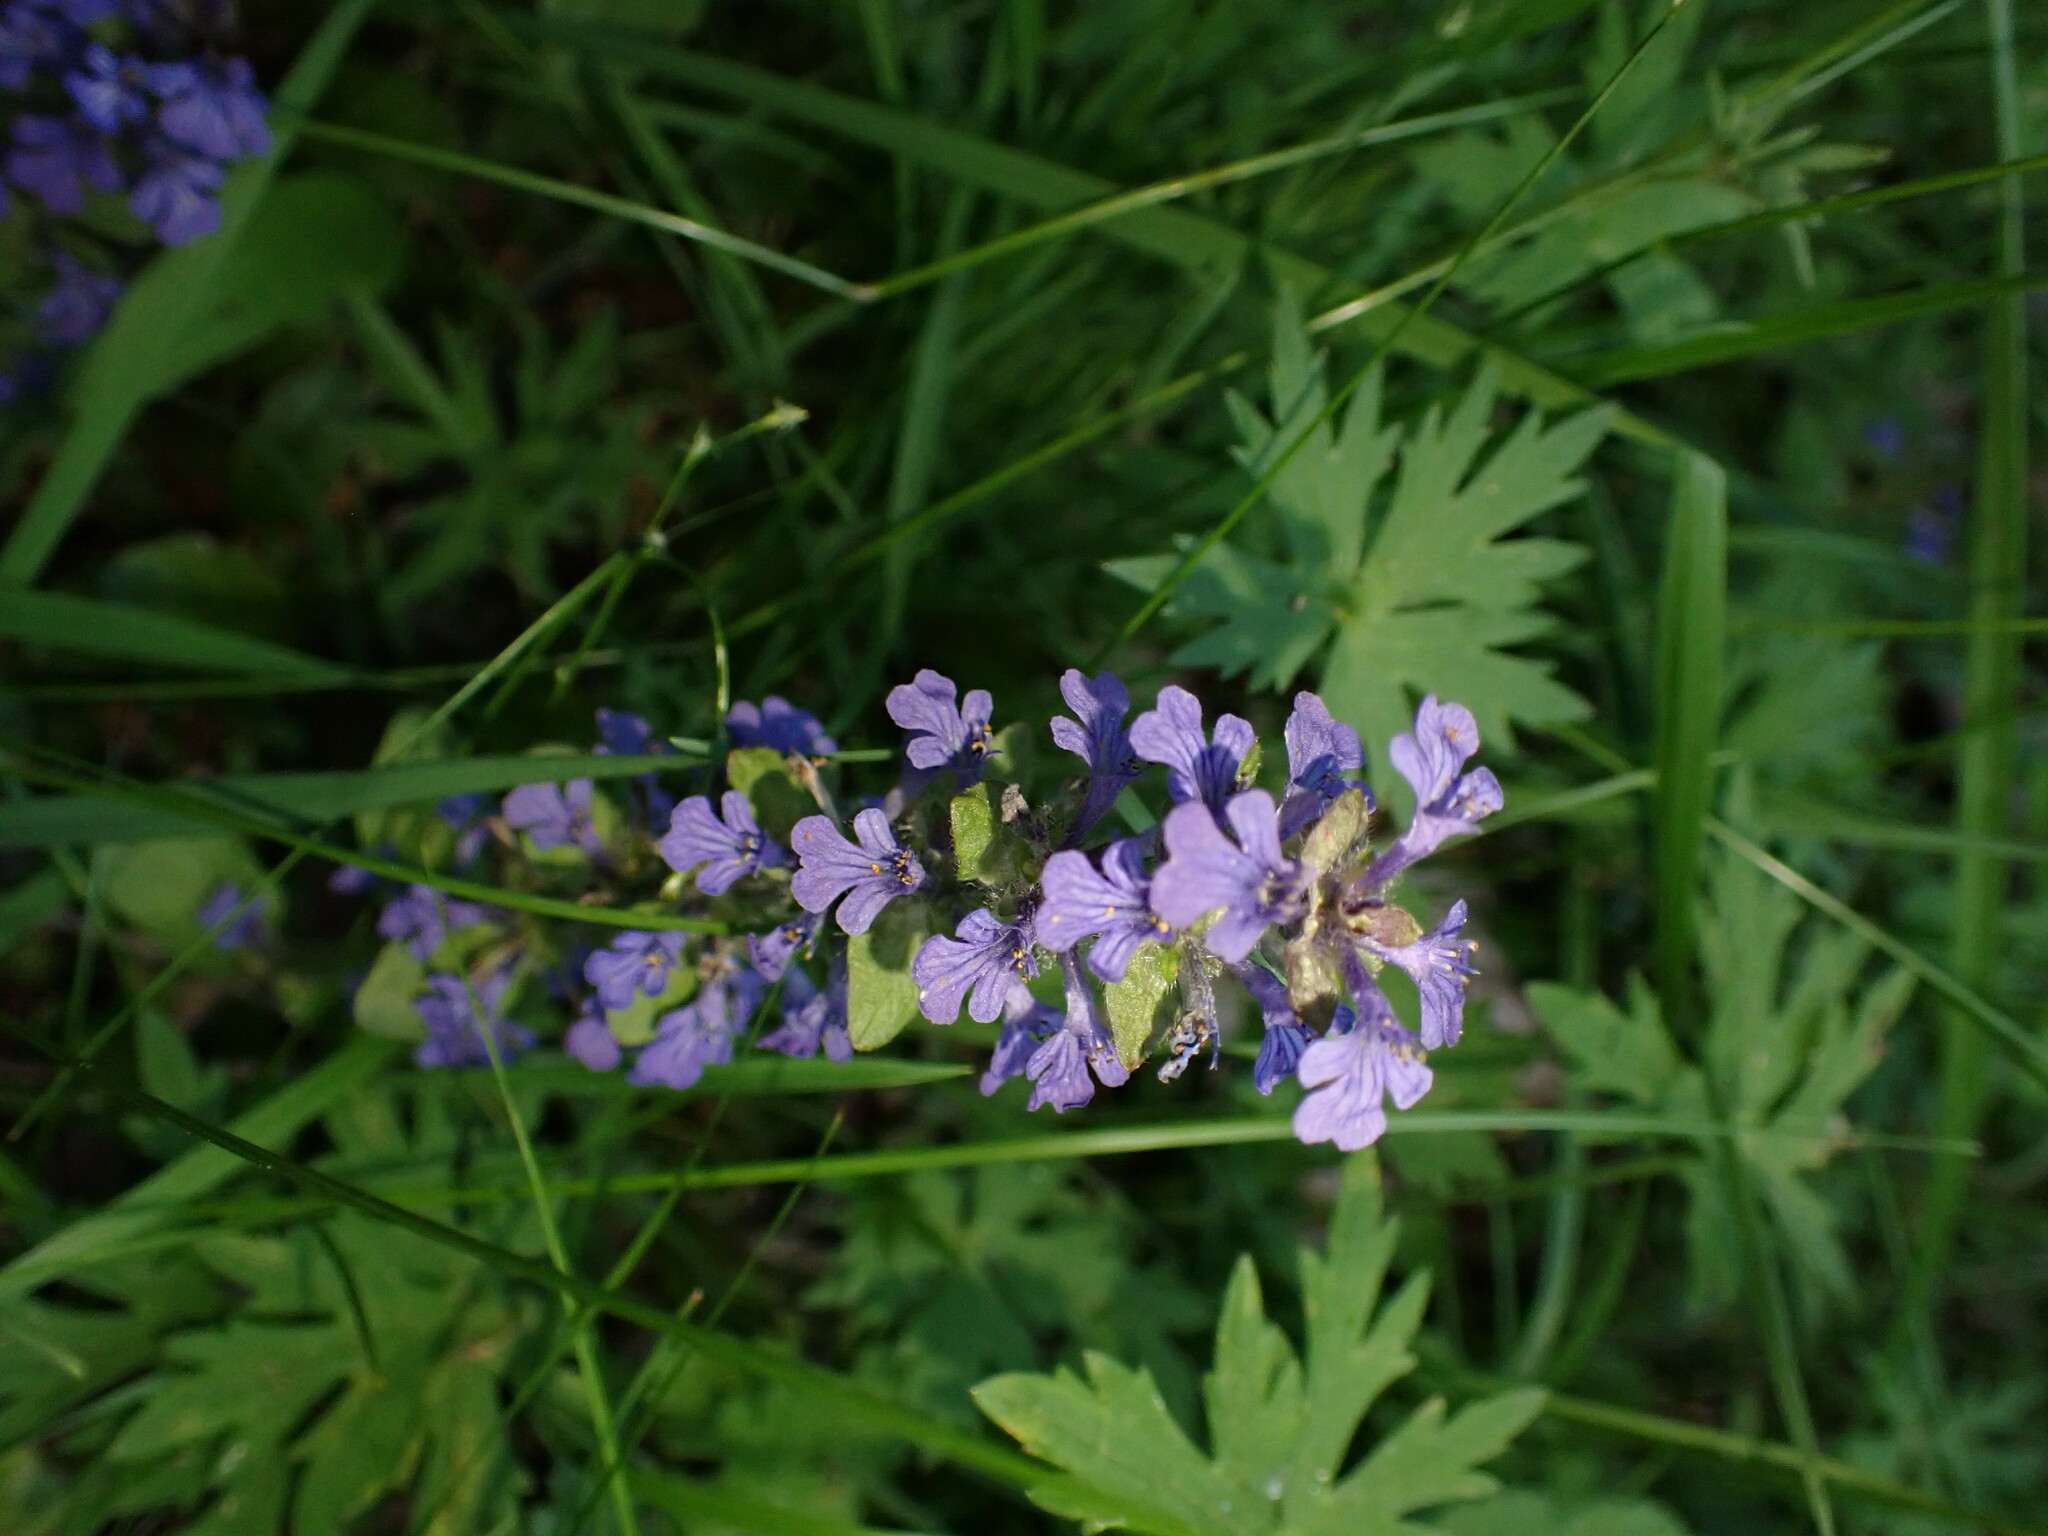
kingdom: Plantae
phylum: Tracheophyta
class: Magnoliopsida
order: Lamiales
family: Lamiaceae
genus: Ajuga
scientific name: Ajuga reptans
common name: Bugle
